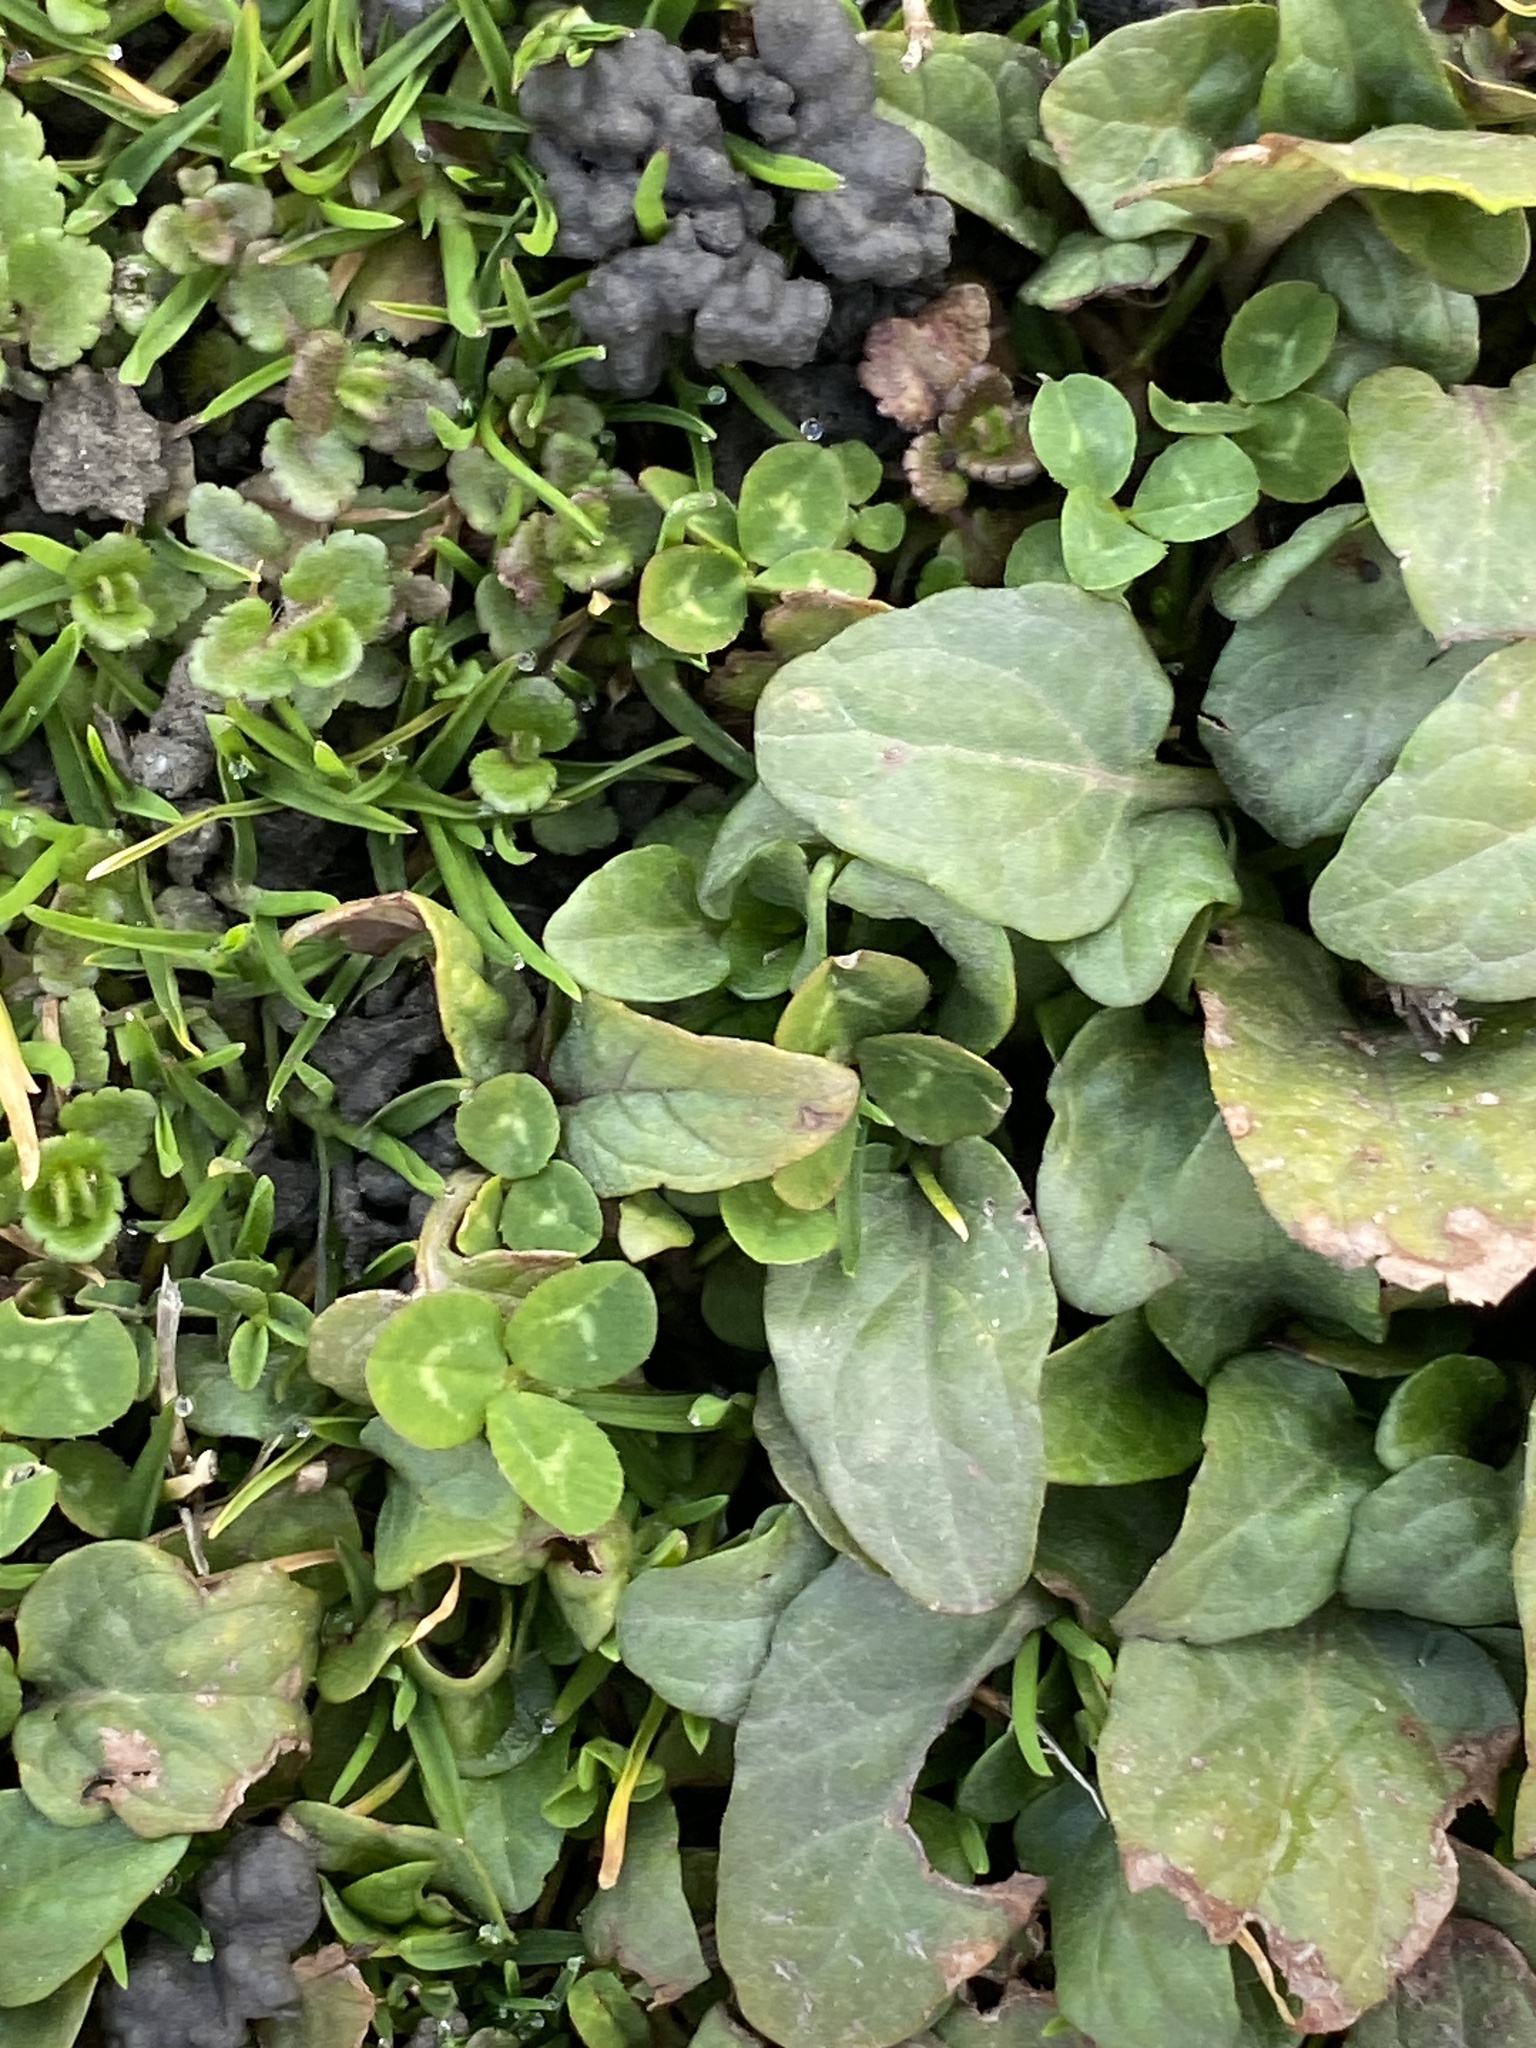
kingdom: Plantae
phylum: Tracheophyta
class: Magnoliopsida
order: Lamiales
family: Lamiaceae
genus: Prunella
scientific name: Prunella vulgaris
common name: Heal-all
